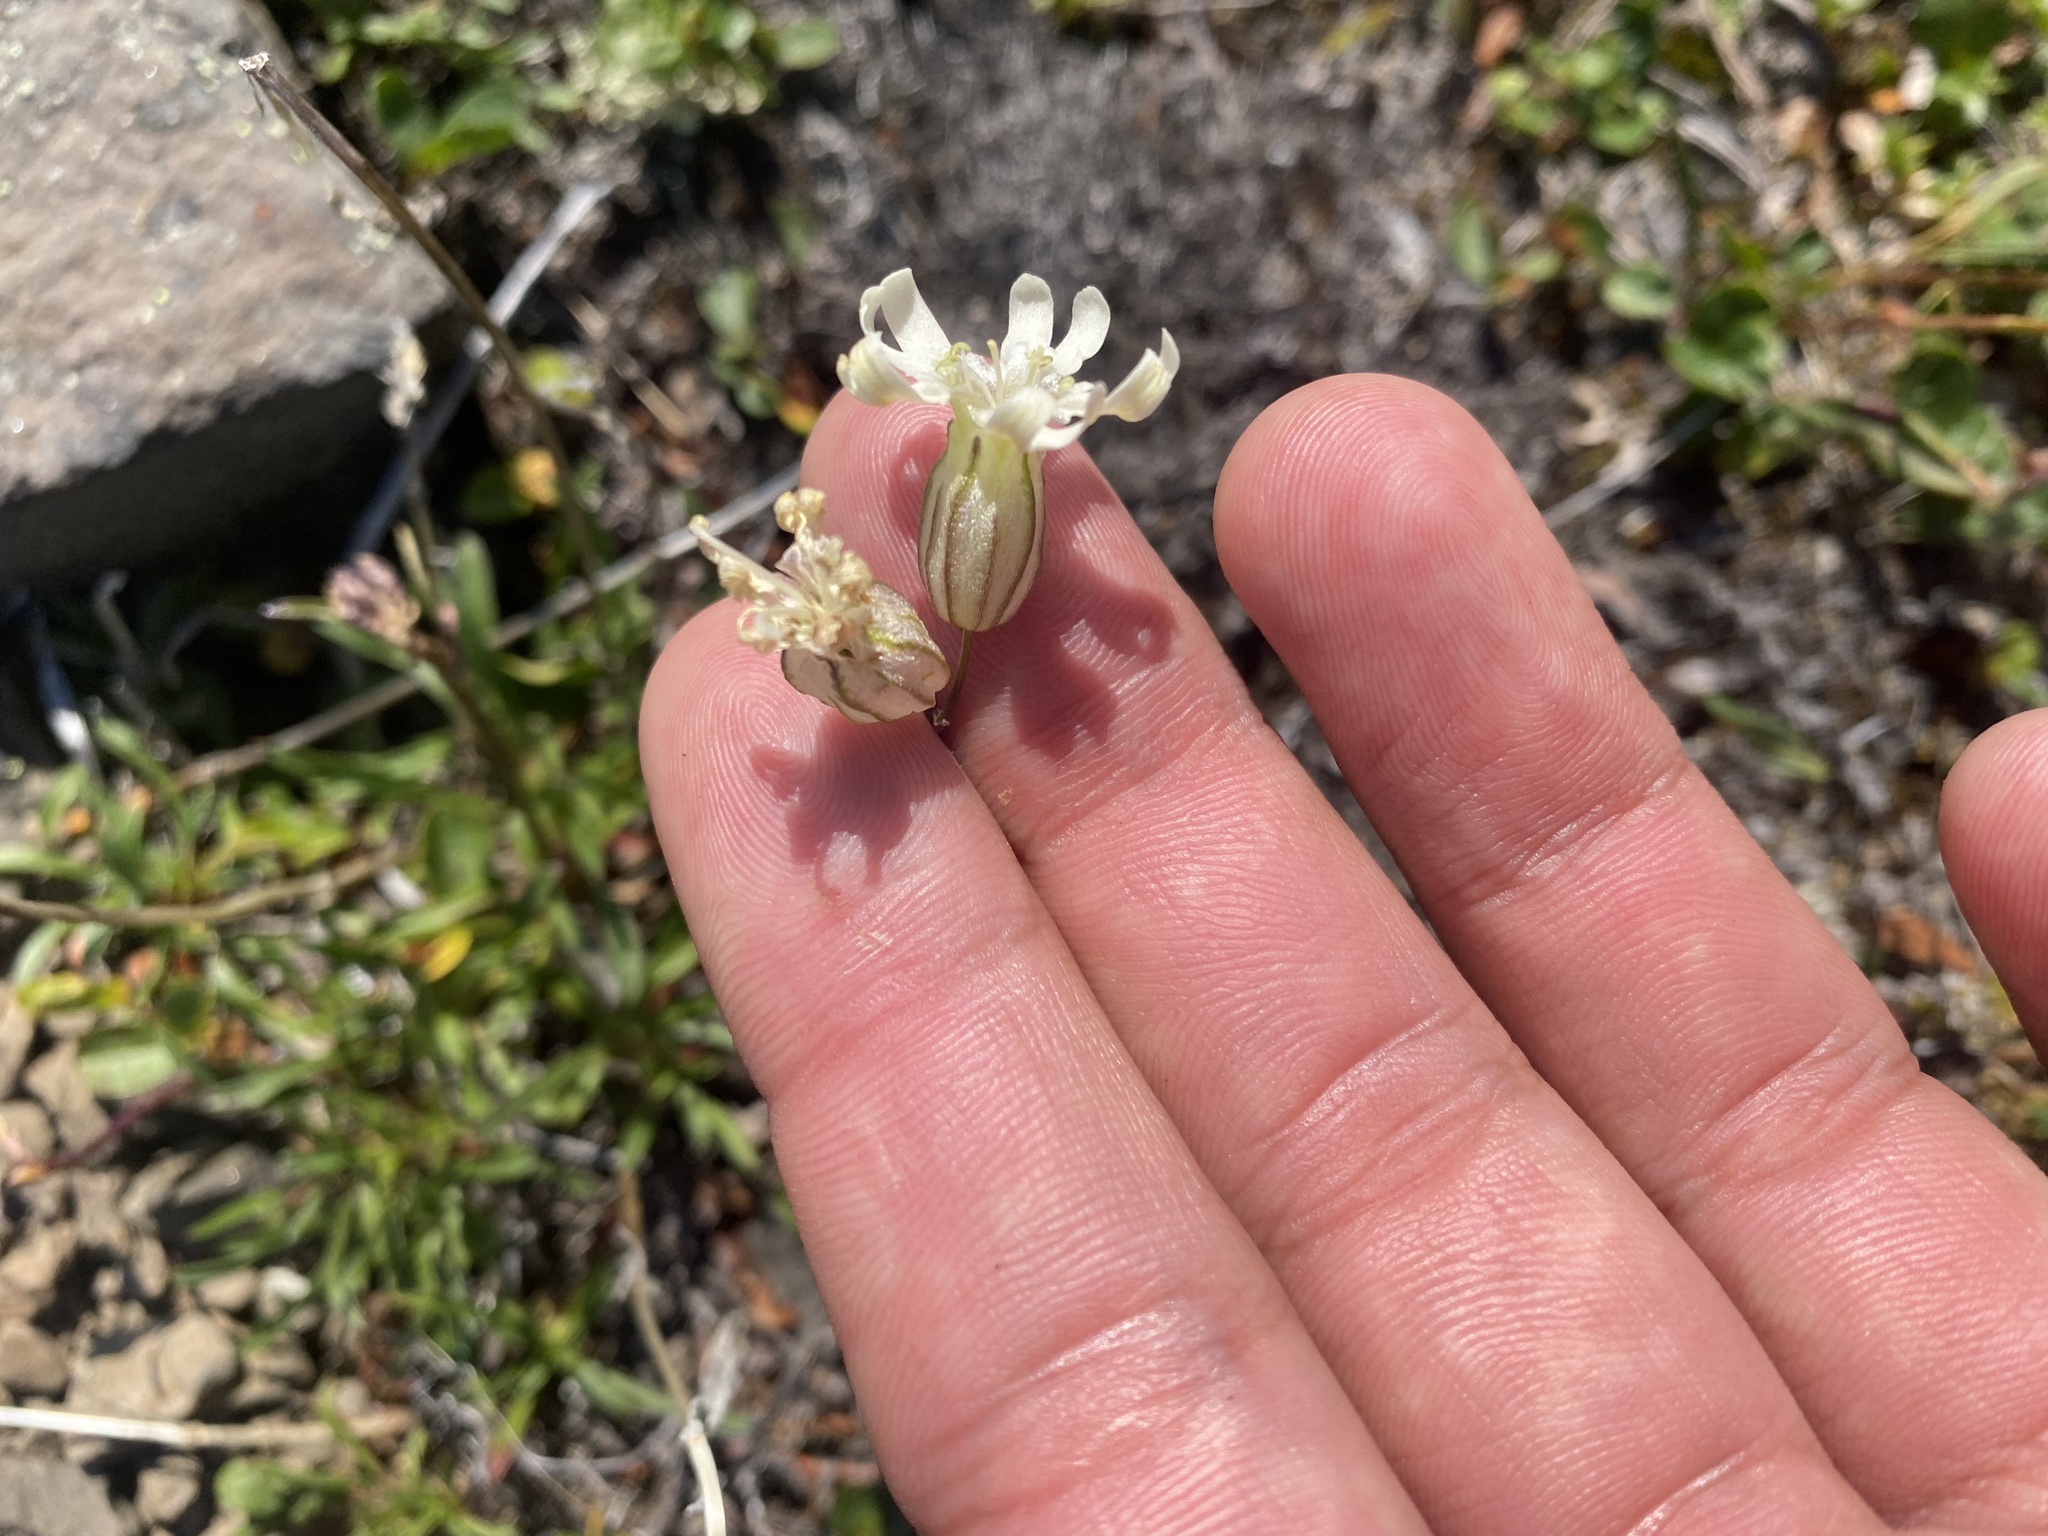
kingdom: Plantae
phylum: Tracheophyta
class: Magnoliopsida
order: Caryophyllales
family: Caryophyllaceae
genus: Silene
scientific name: Silene chamarensis
